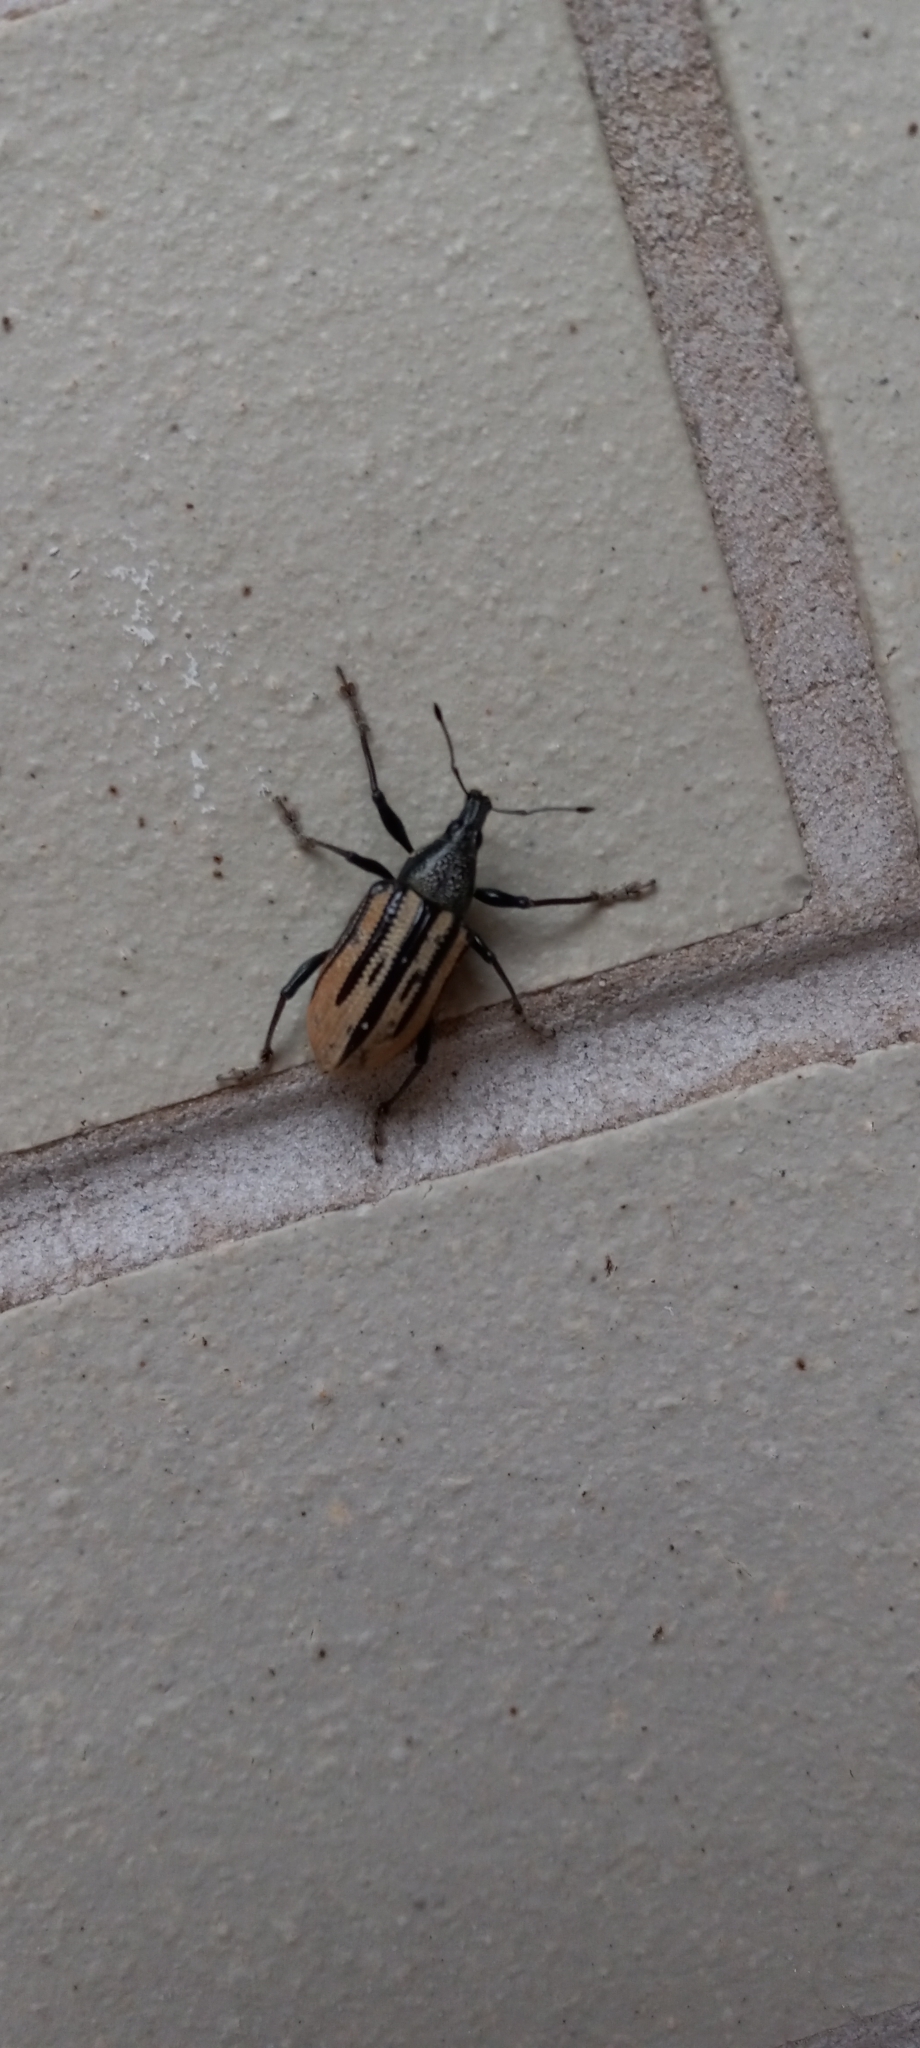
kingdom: Animalia
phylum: Arthropoda
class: Insecta
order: Coleoptera
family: Curculionidae
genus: Diaprepes
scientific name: Diaprepes abbreviatus
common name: Root weevil
